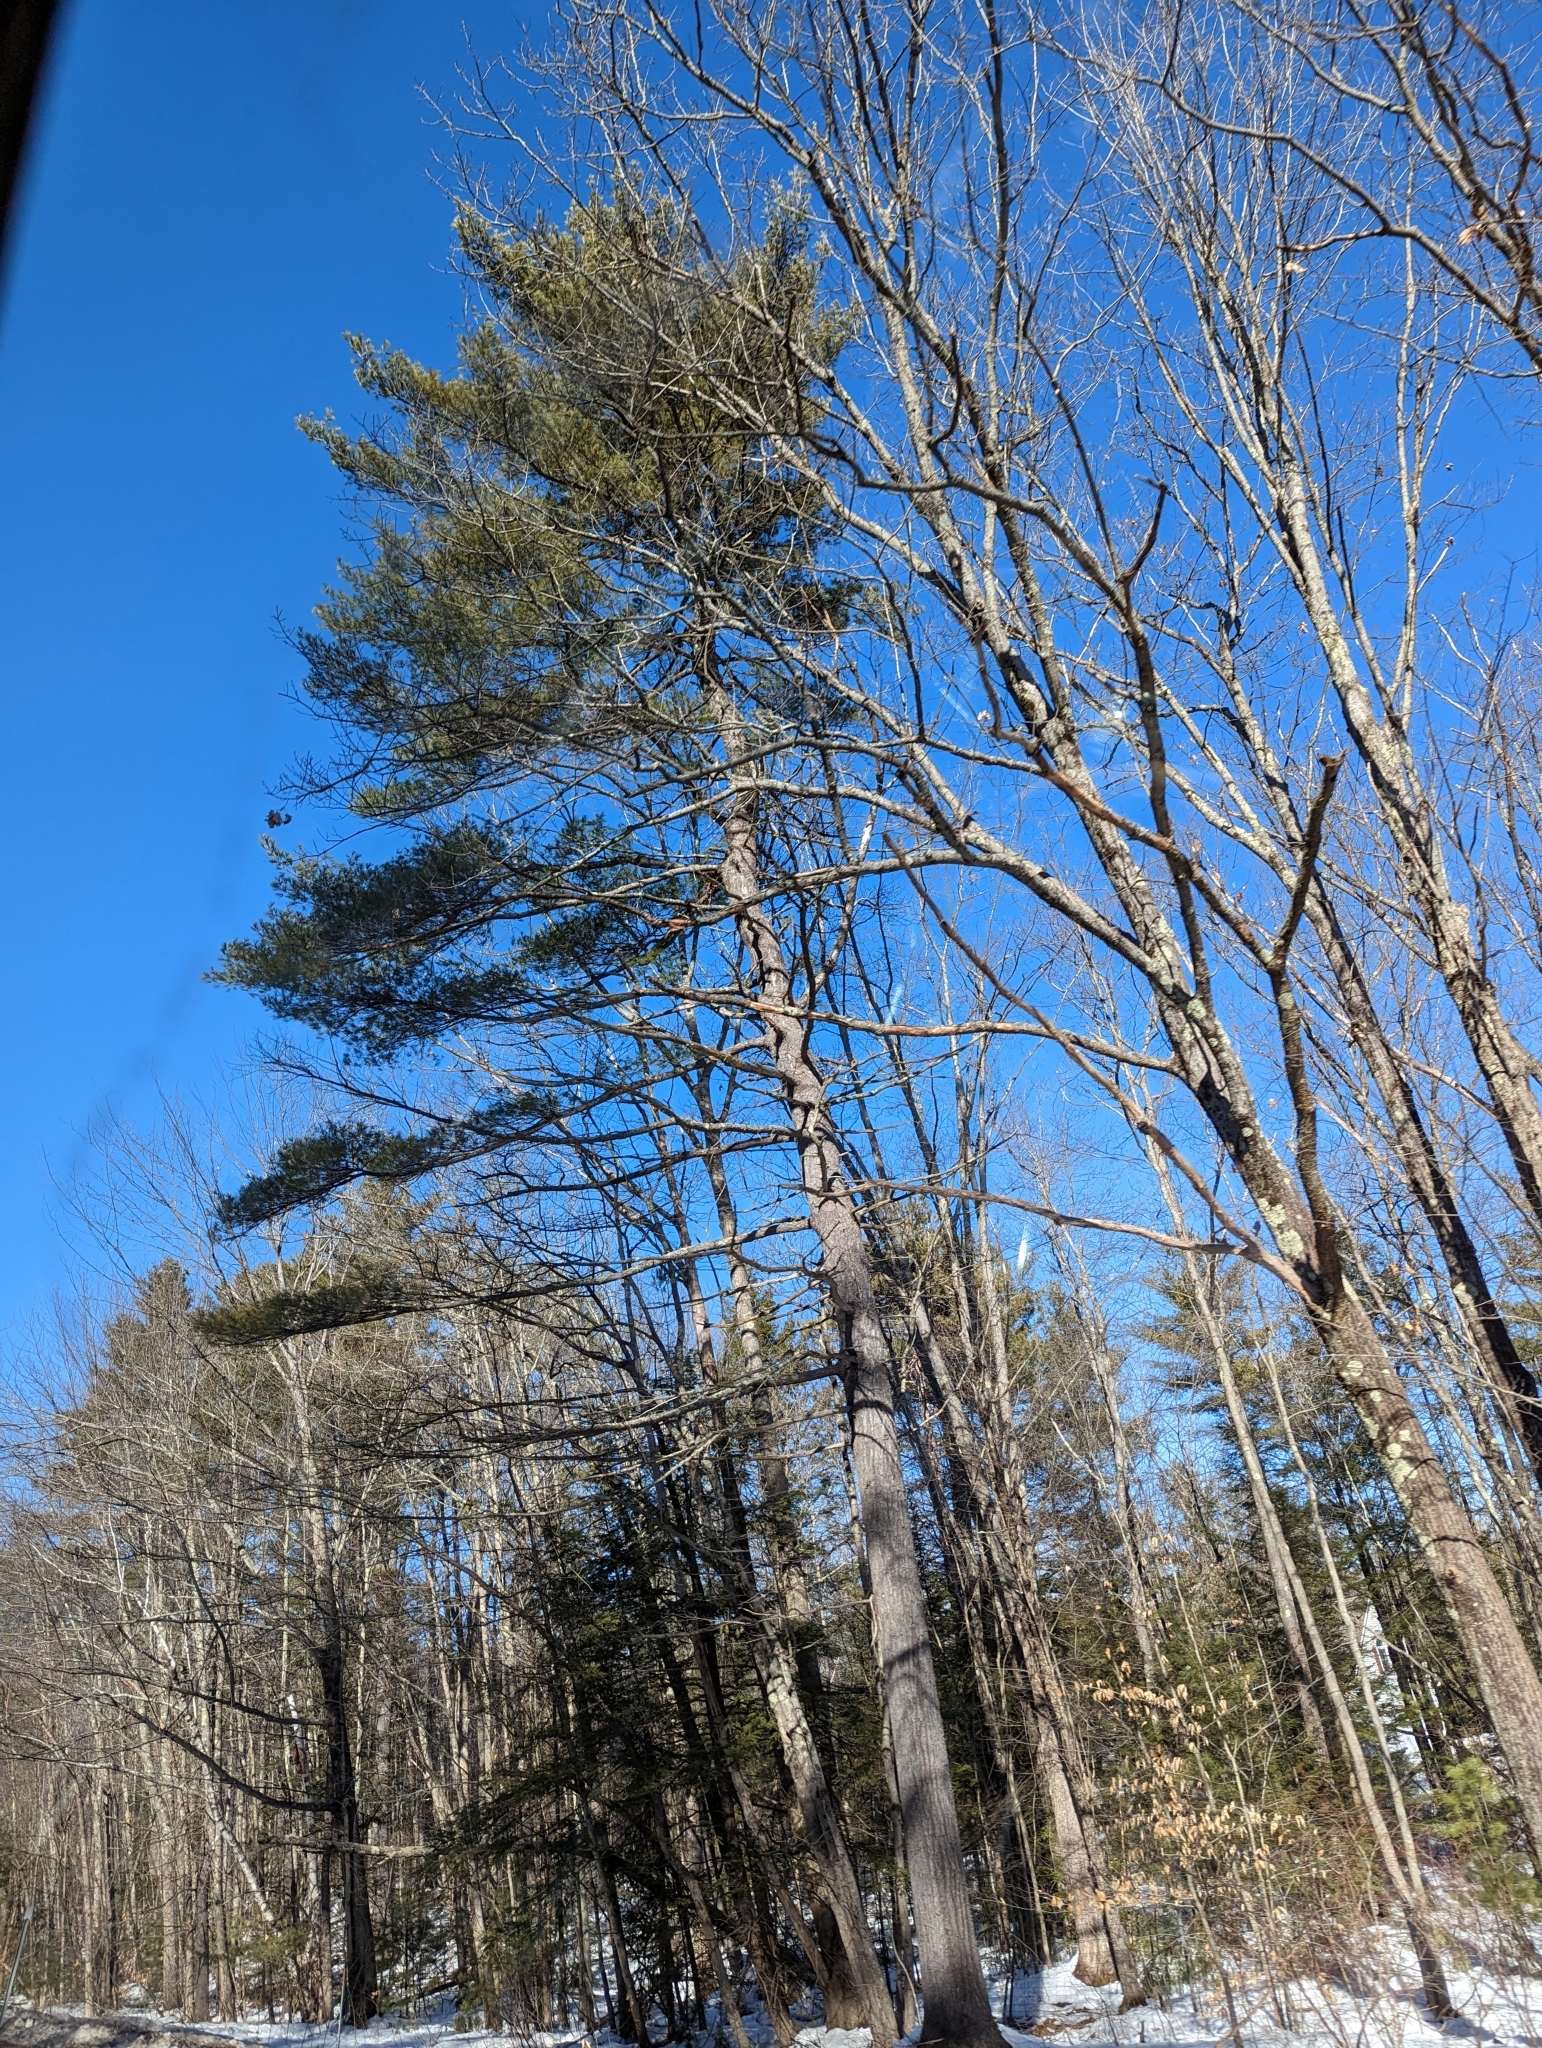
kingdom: Plantae
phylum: Tracheophyta
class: Pinopsida
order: Pinales
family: Pinaceae
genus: Pinus
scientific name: Pinus strobus
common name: Weymouth pine
